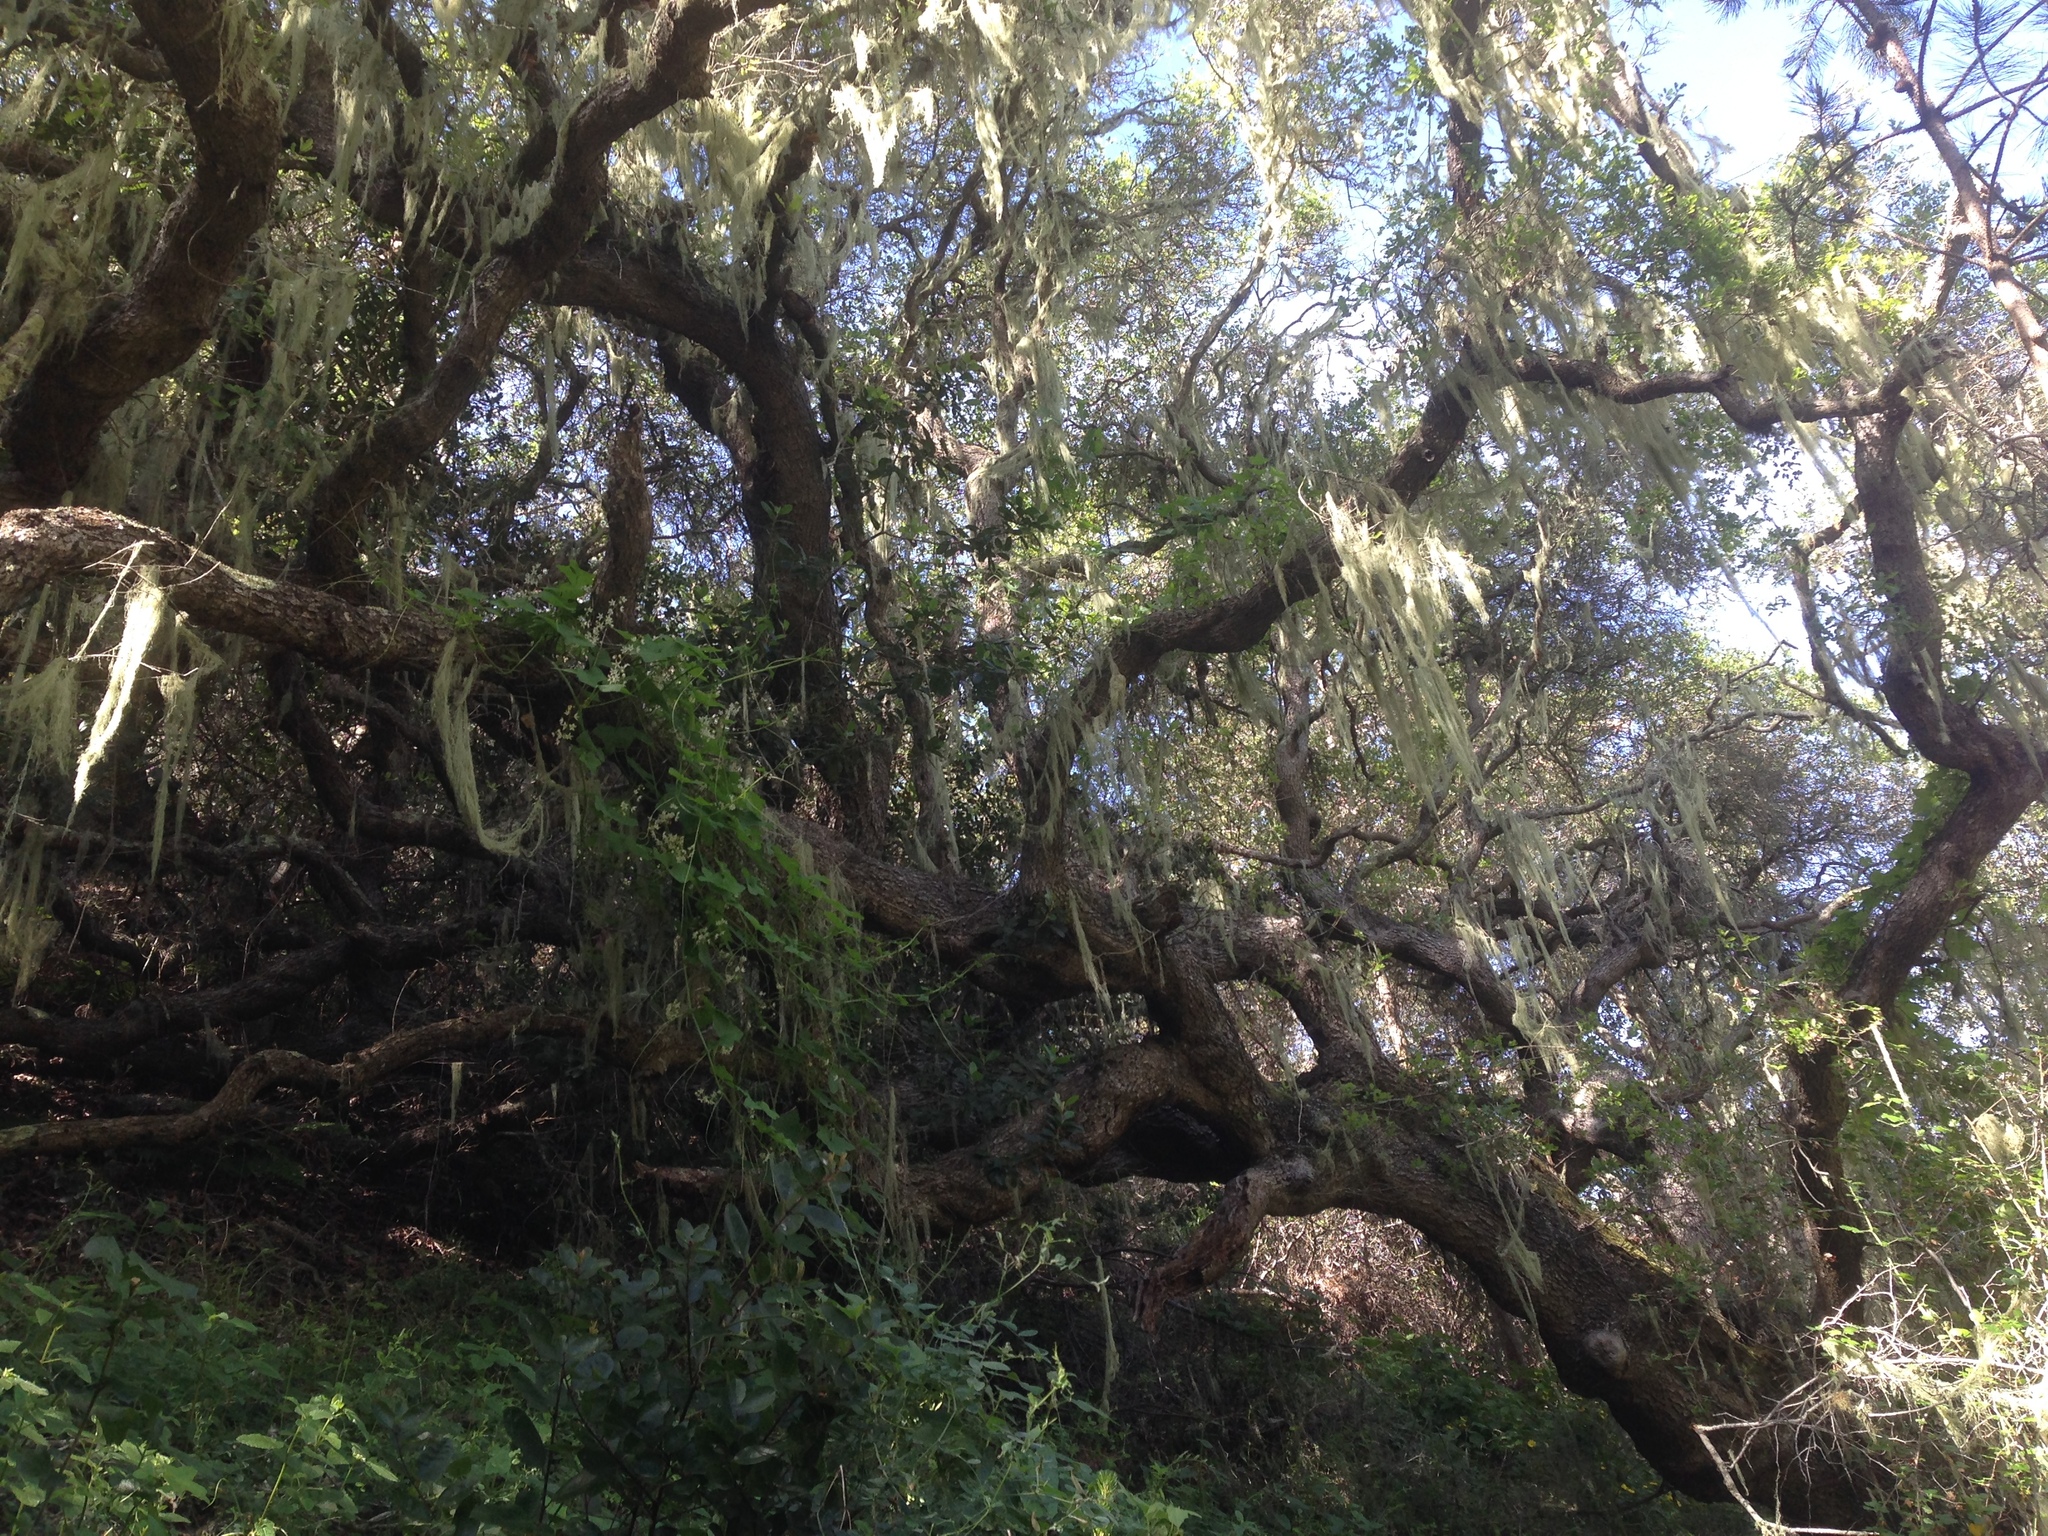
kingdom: Fungi
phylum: Ascomycota
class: Lecanoromycetes
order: Lecanorales
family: Ramalinaceae
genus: Ramalina
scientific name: Ramalina menziesii
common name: Lace lichen
